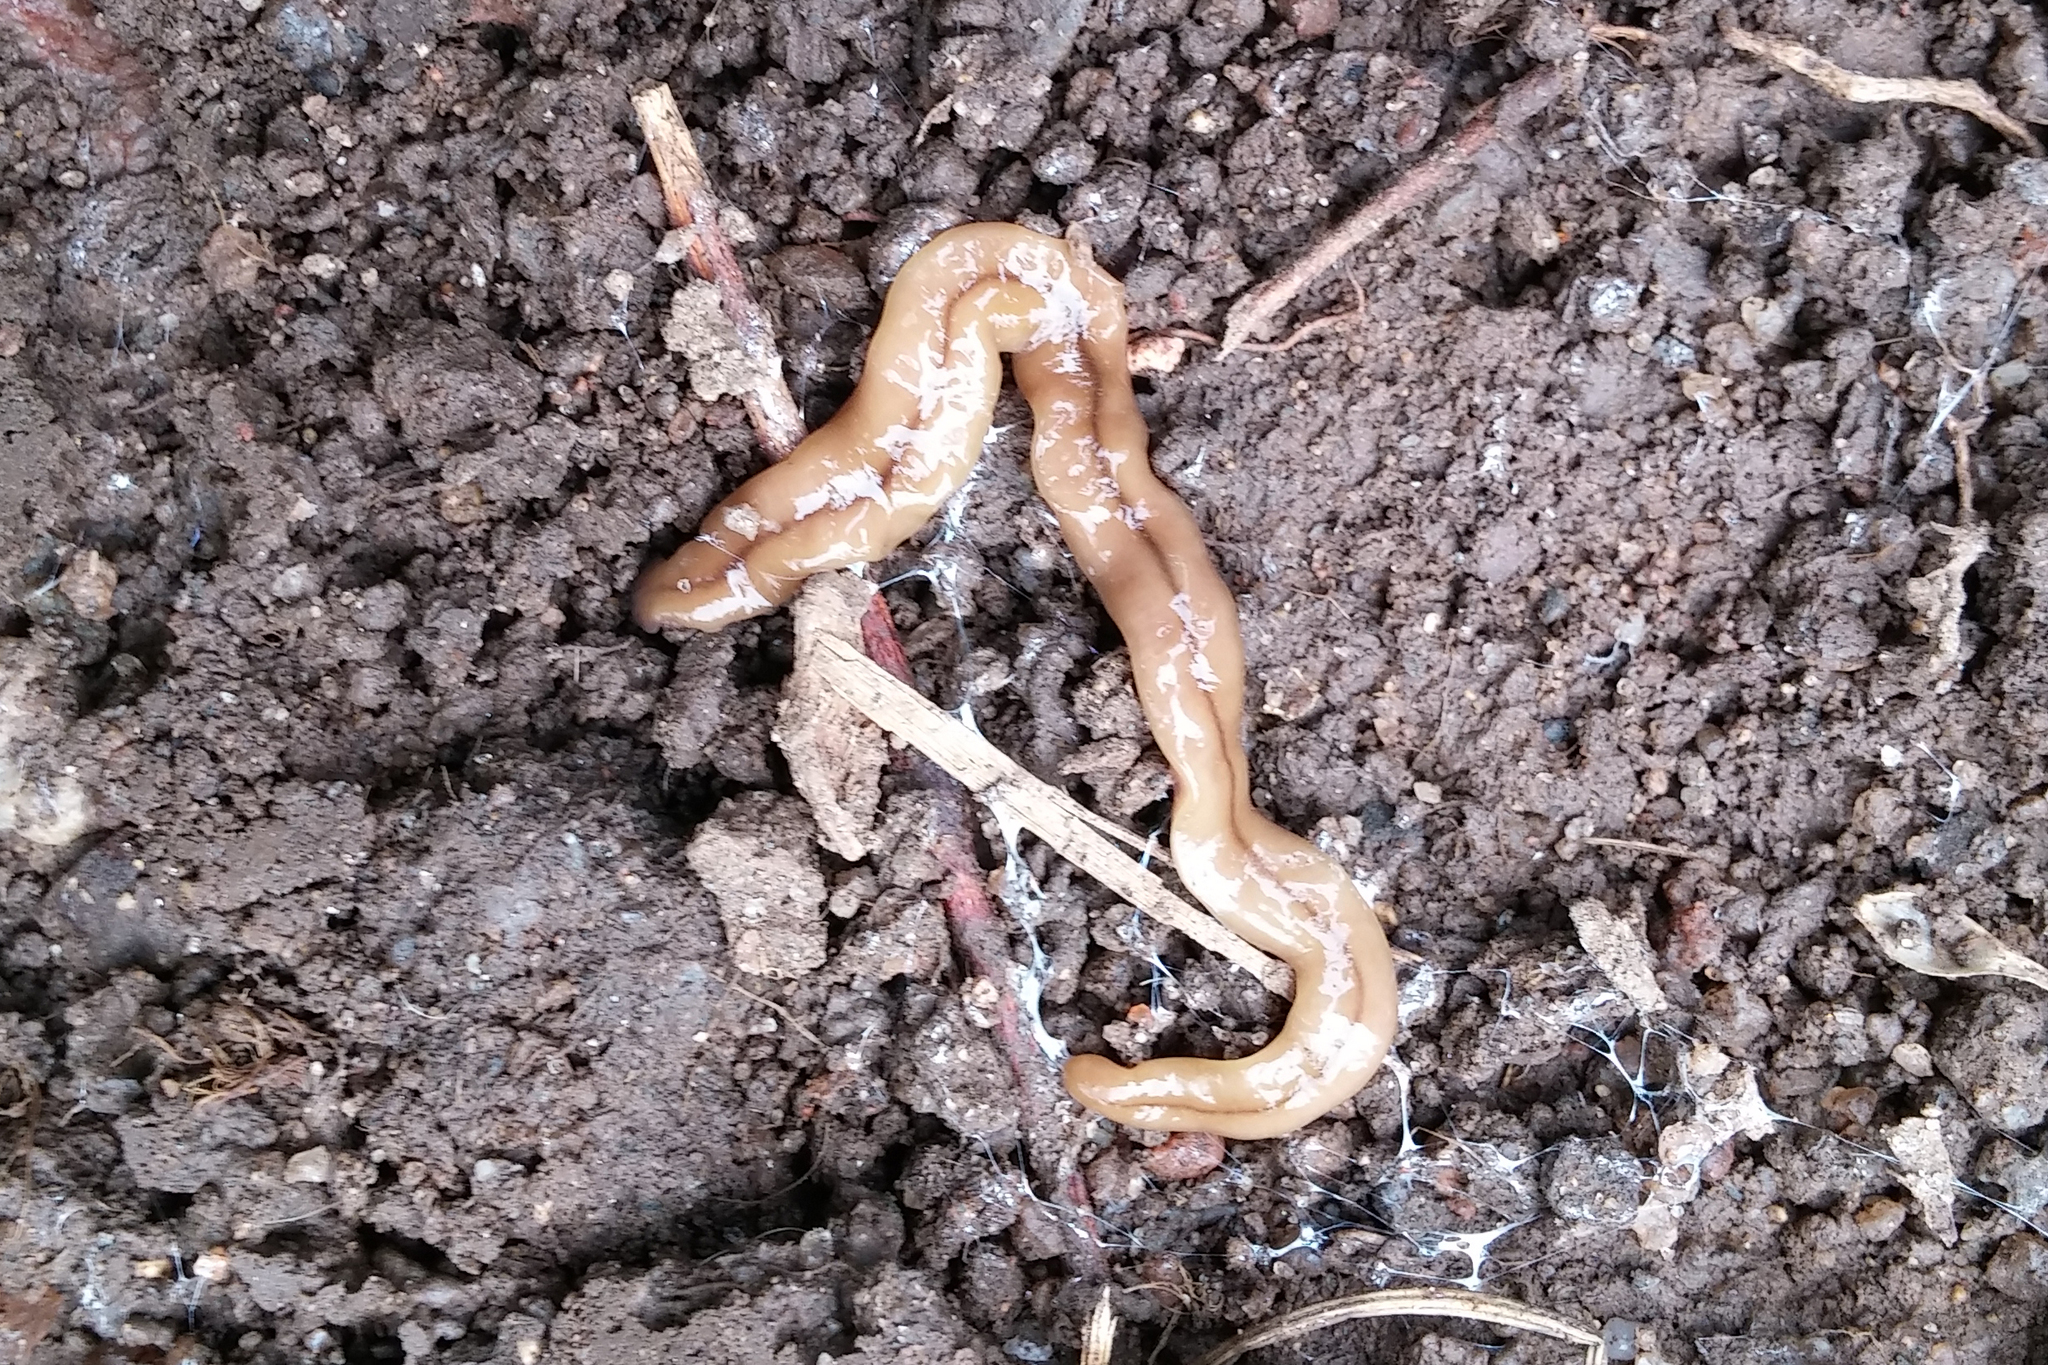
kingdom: Animalia
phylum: Platyhelminthes
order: Tricladida
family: Geoplanidae
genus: Bipalium
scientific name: Bipalium adventitium
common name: Land planarian
